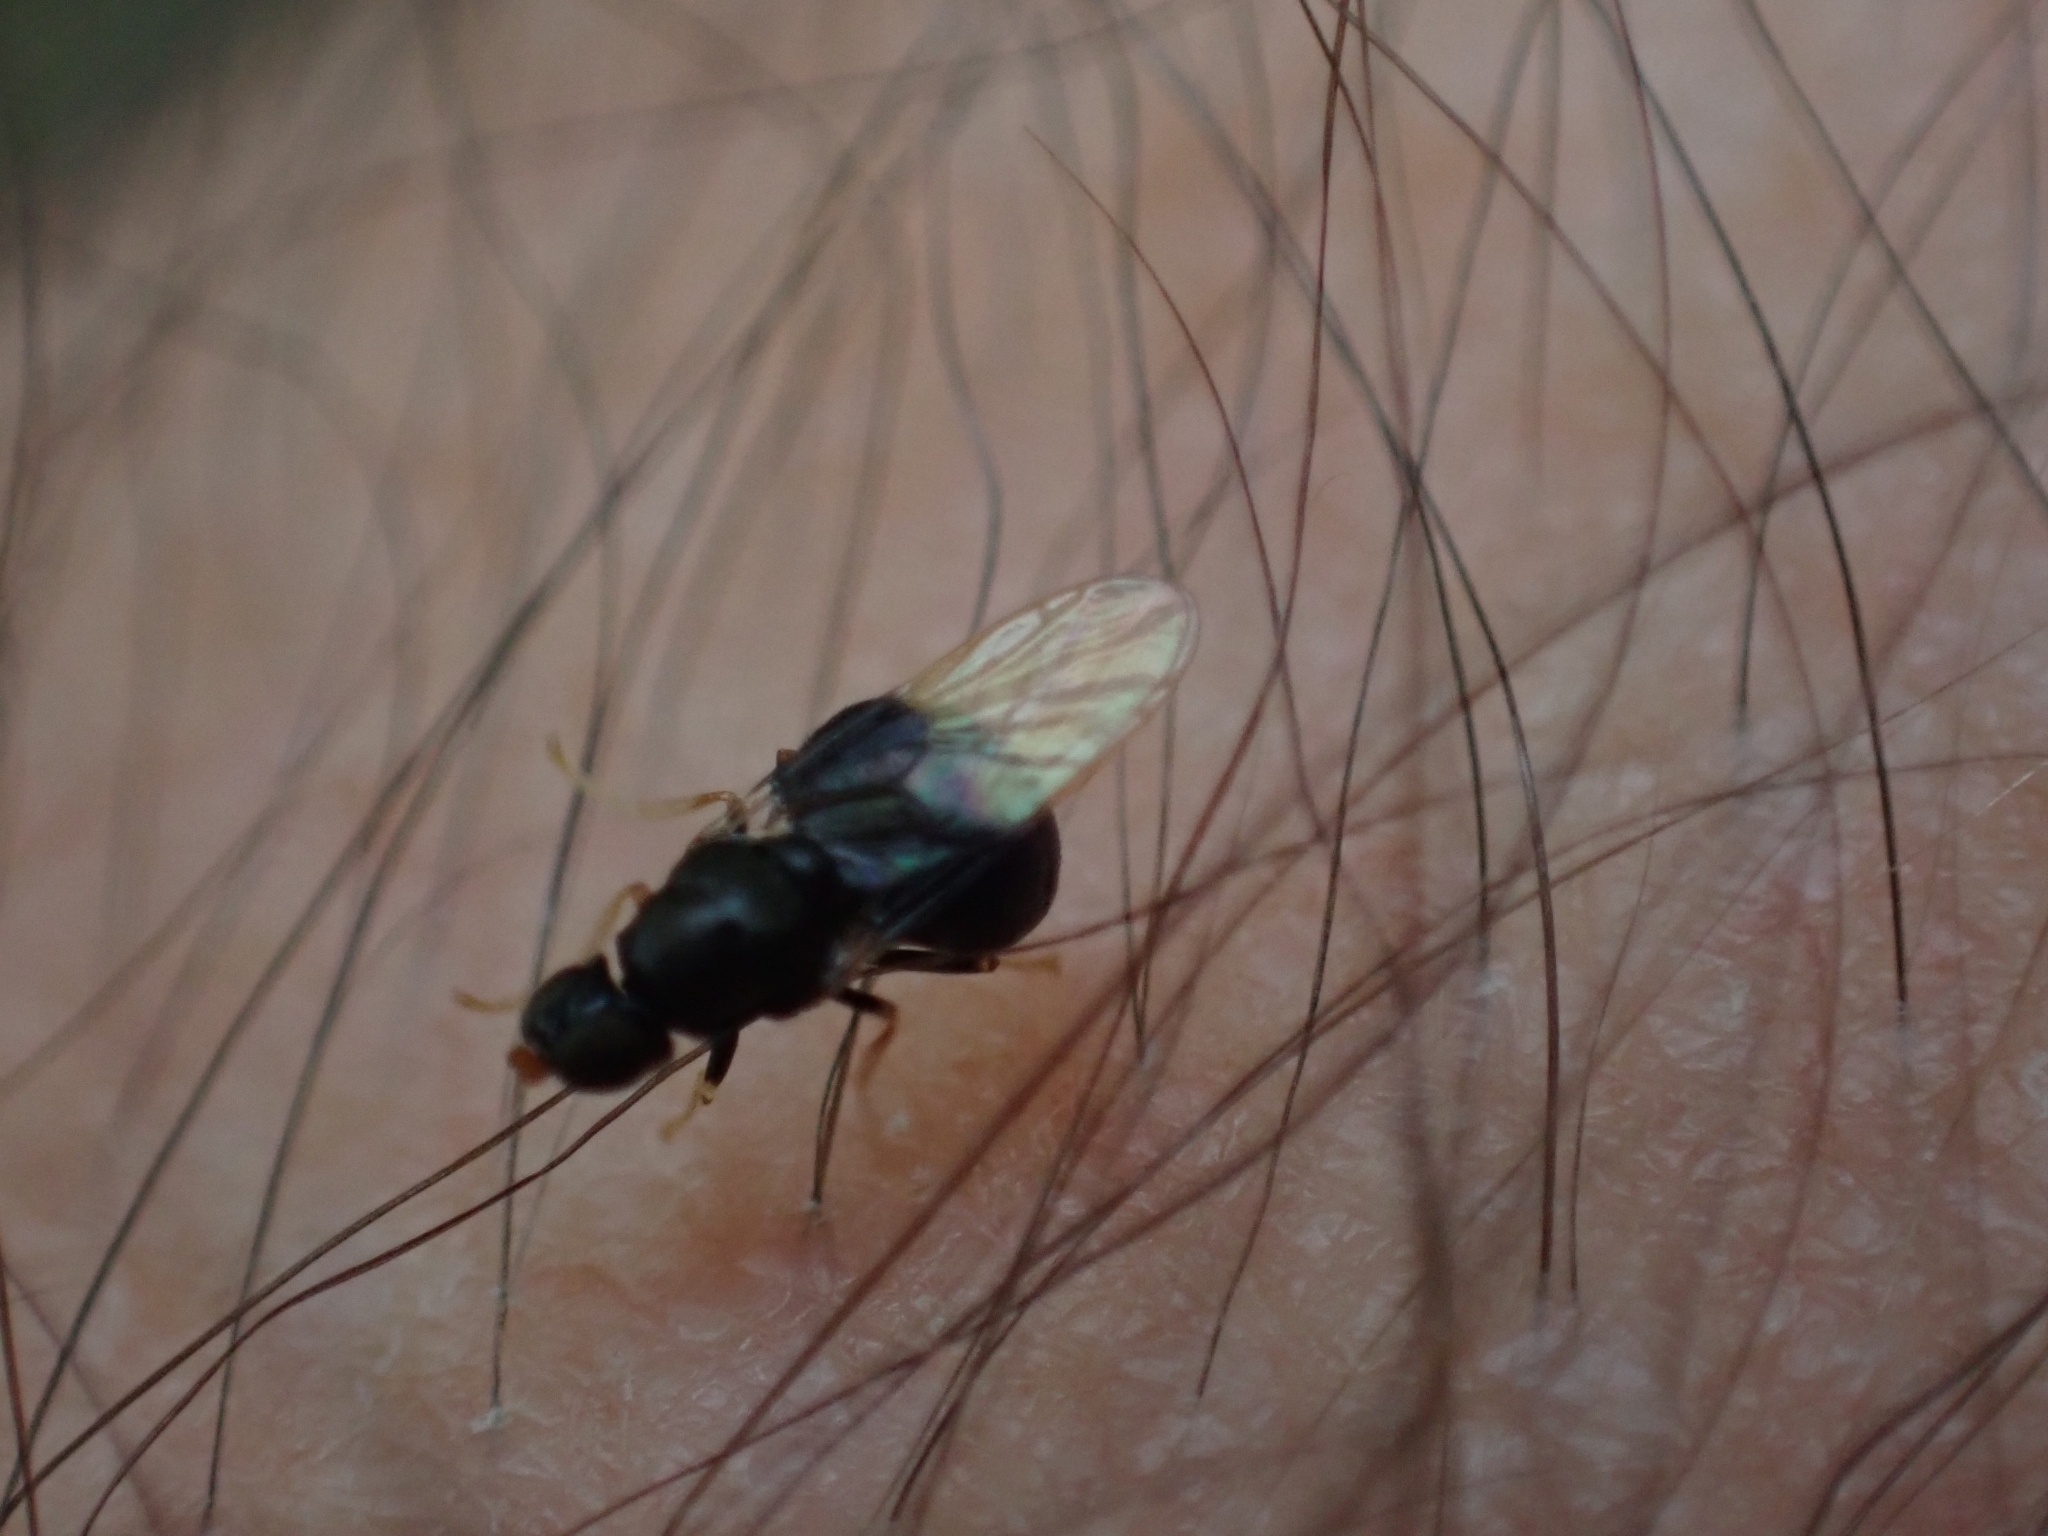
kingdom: Animalia
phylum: Arthropoda
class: Insecta
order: Diptera
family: Stratiomyidae
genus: Pachygaster
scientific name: Pachygaster atra
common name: Dark-winged black
